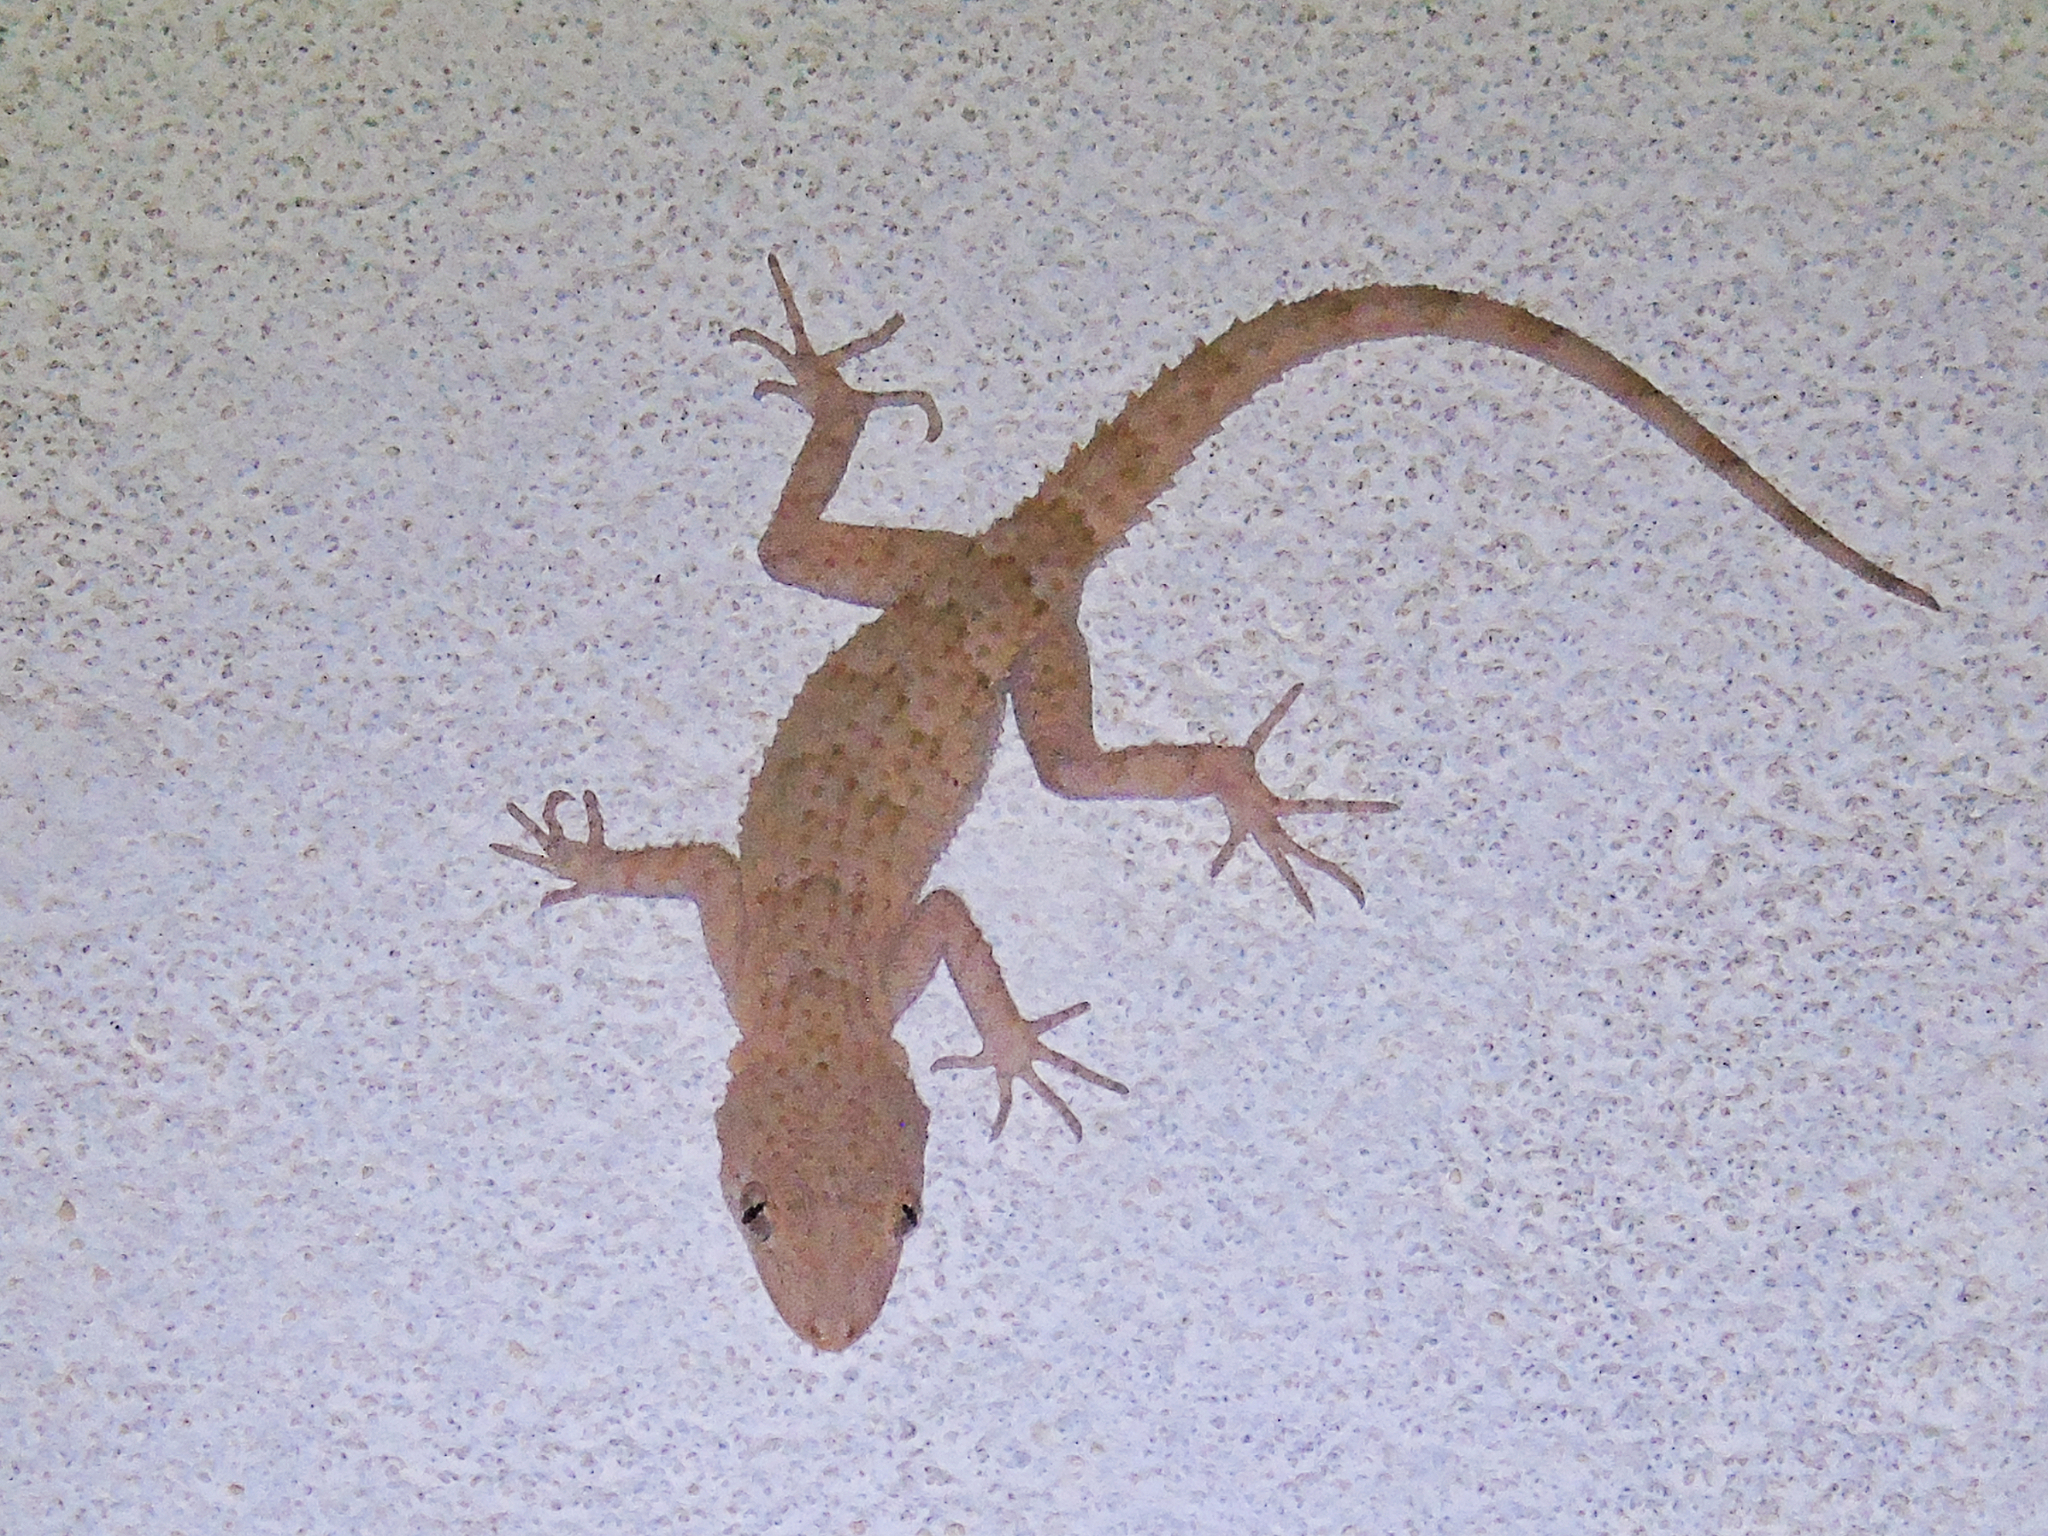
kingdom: Animalia
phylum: Chordata
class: Squamata
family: Gekkonidae
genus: Mediodactylus
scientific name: Mediodactylus russowii
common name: Grey thin-toed gecko
